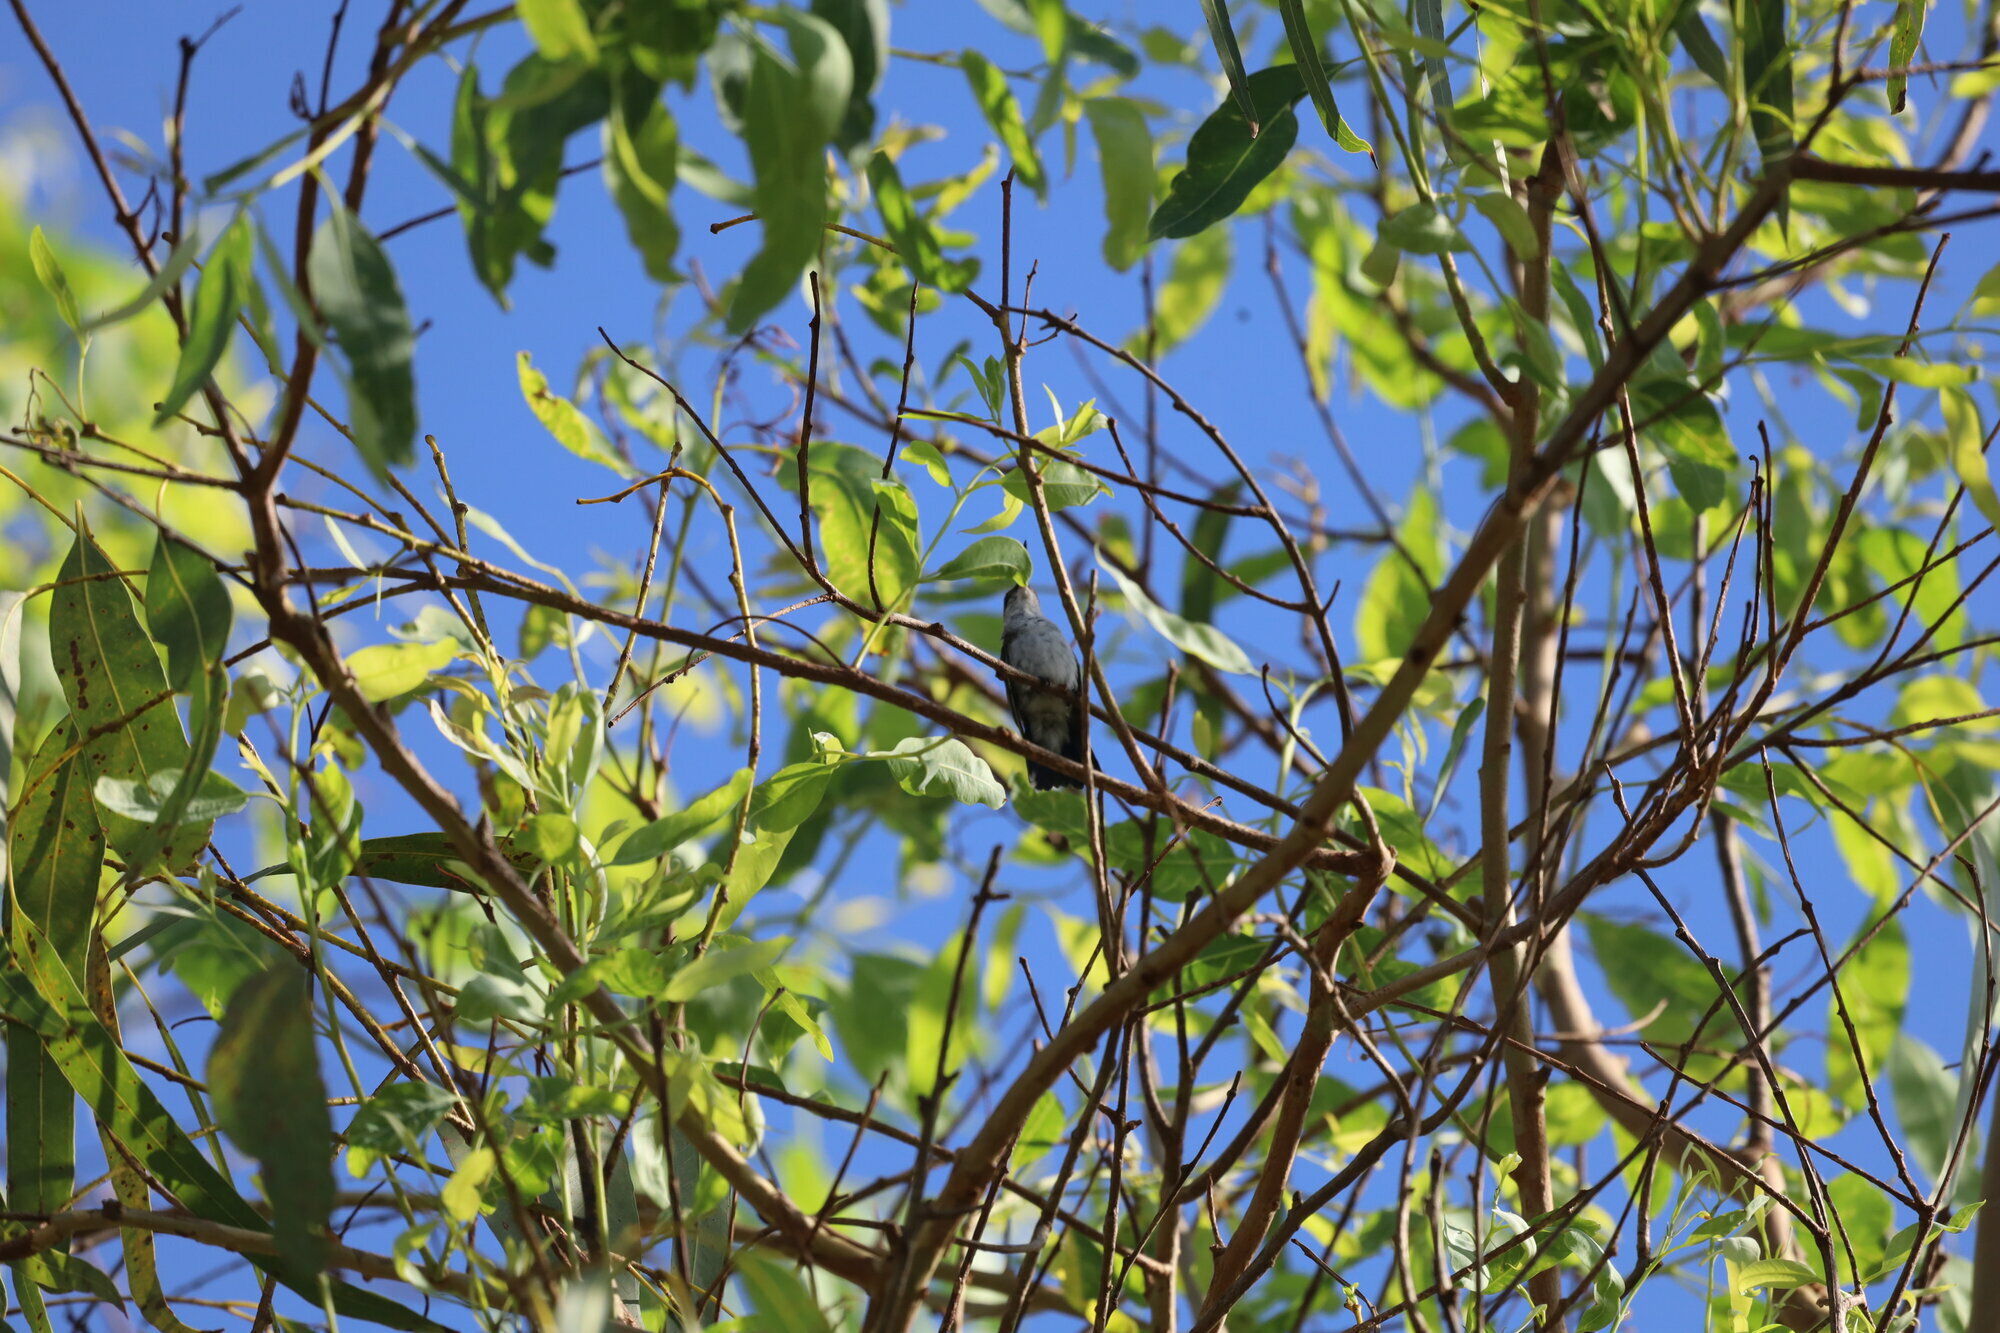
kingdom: Animalia
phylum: Chordata
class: Aves
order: Apodiformes
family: Trochilidae
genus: Chrysuronia
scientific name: Chrysuronia coeruleogularis
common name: Sapphire-throated hummingbird
